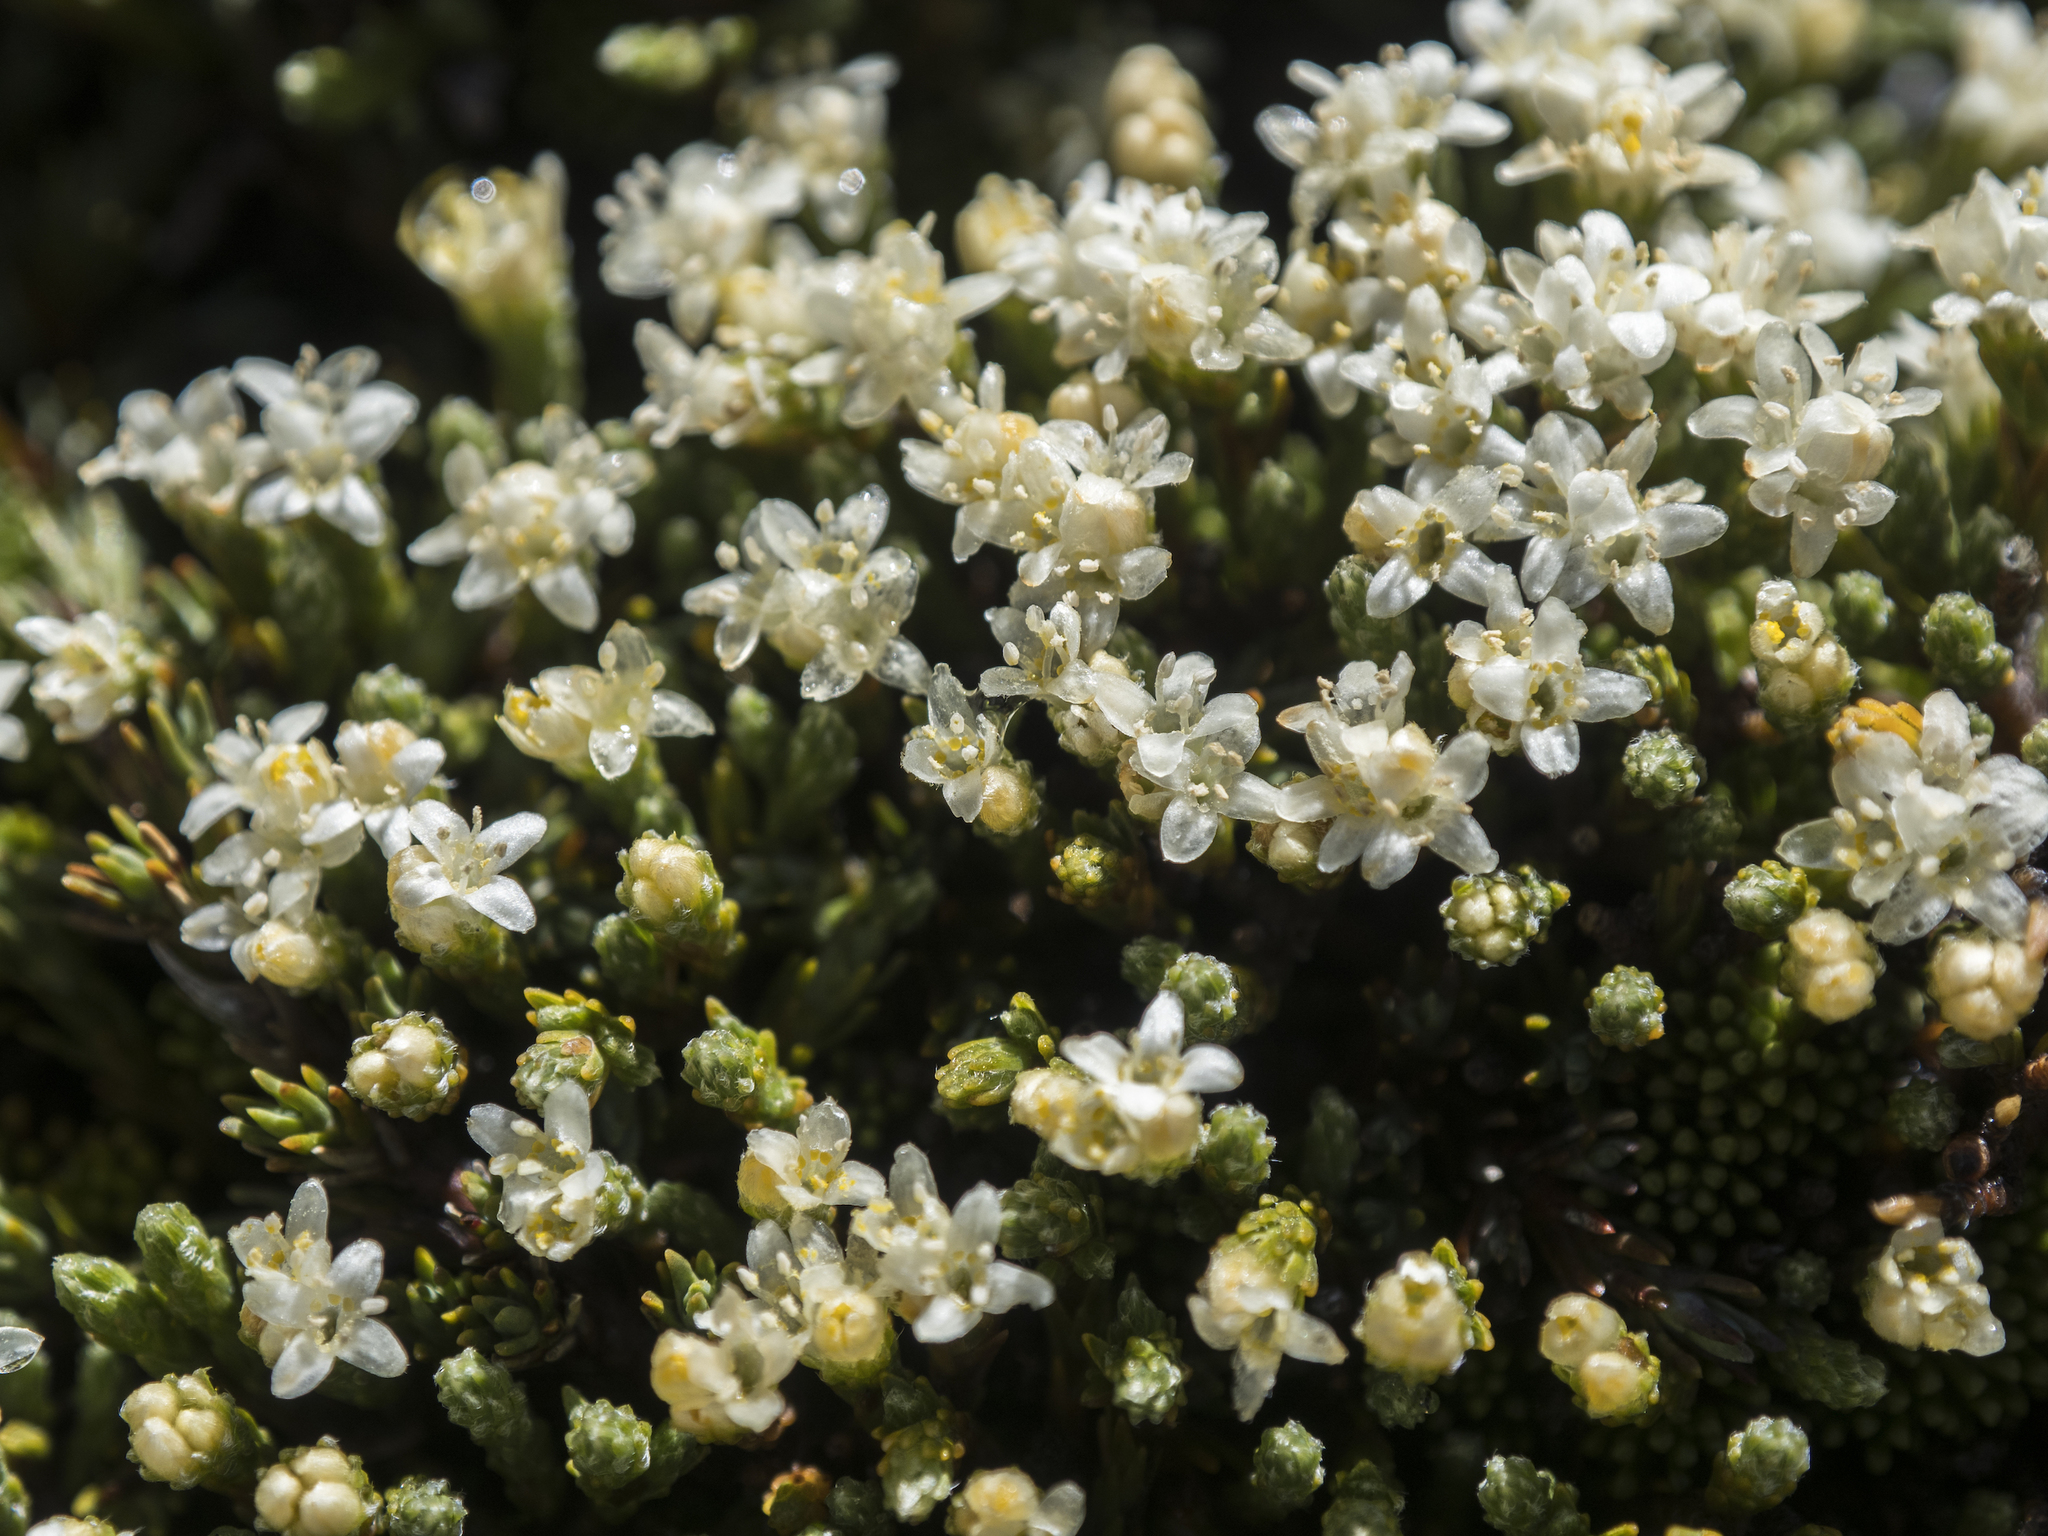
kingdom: Plantae
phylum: Tracheophyta
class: Magnoliopsida
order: Malvales
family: Thymelaeaceae
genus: Kelleria
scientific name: Kelleria dieffenbachii
